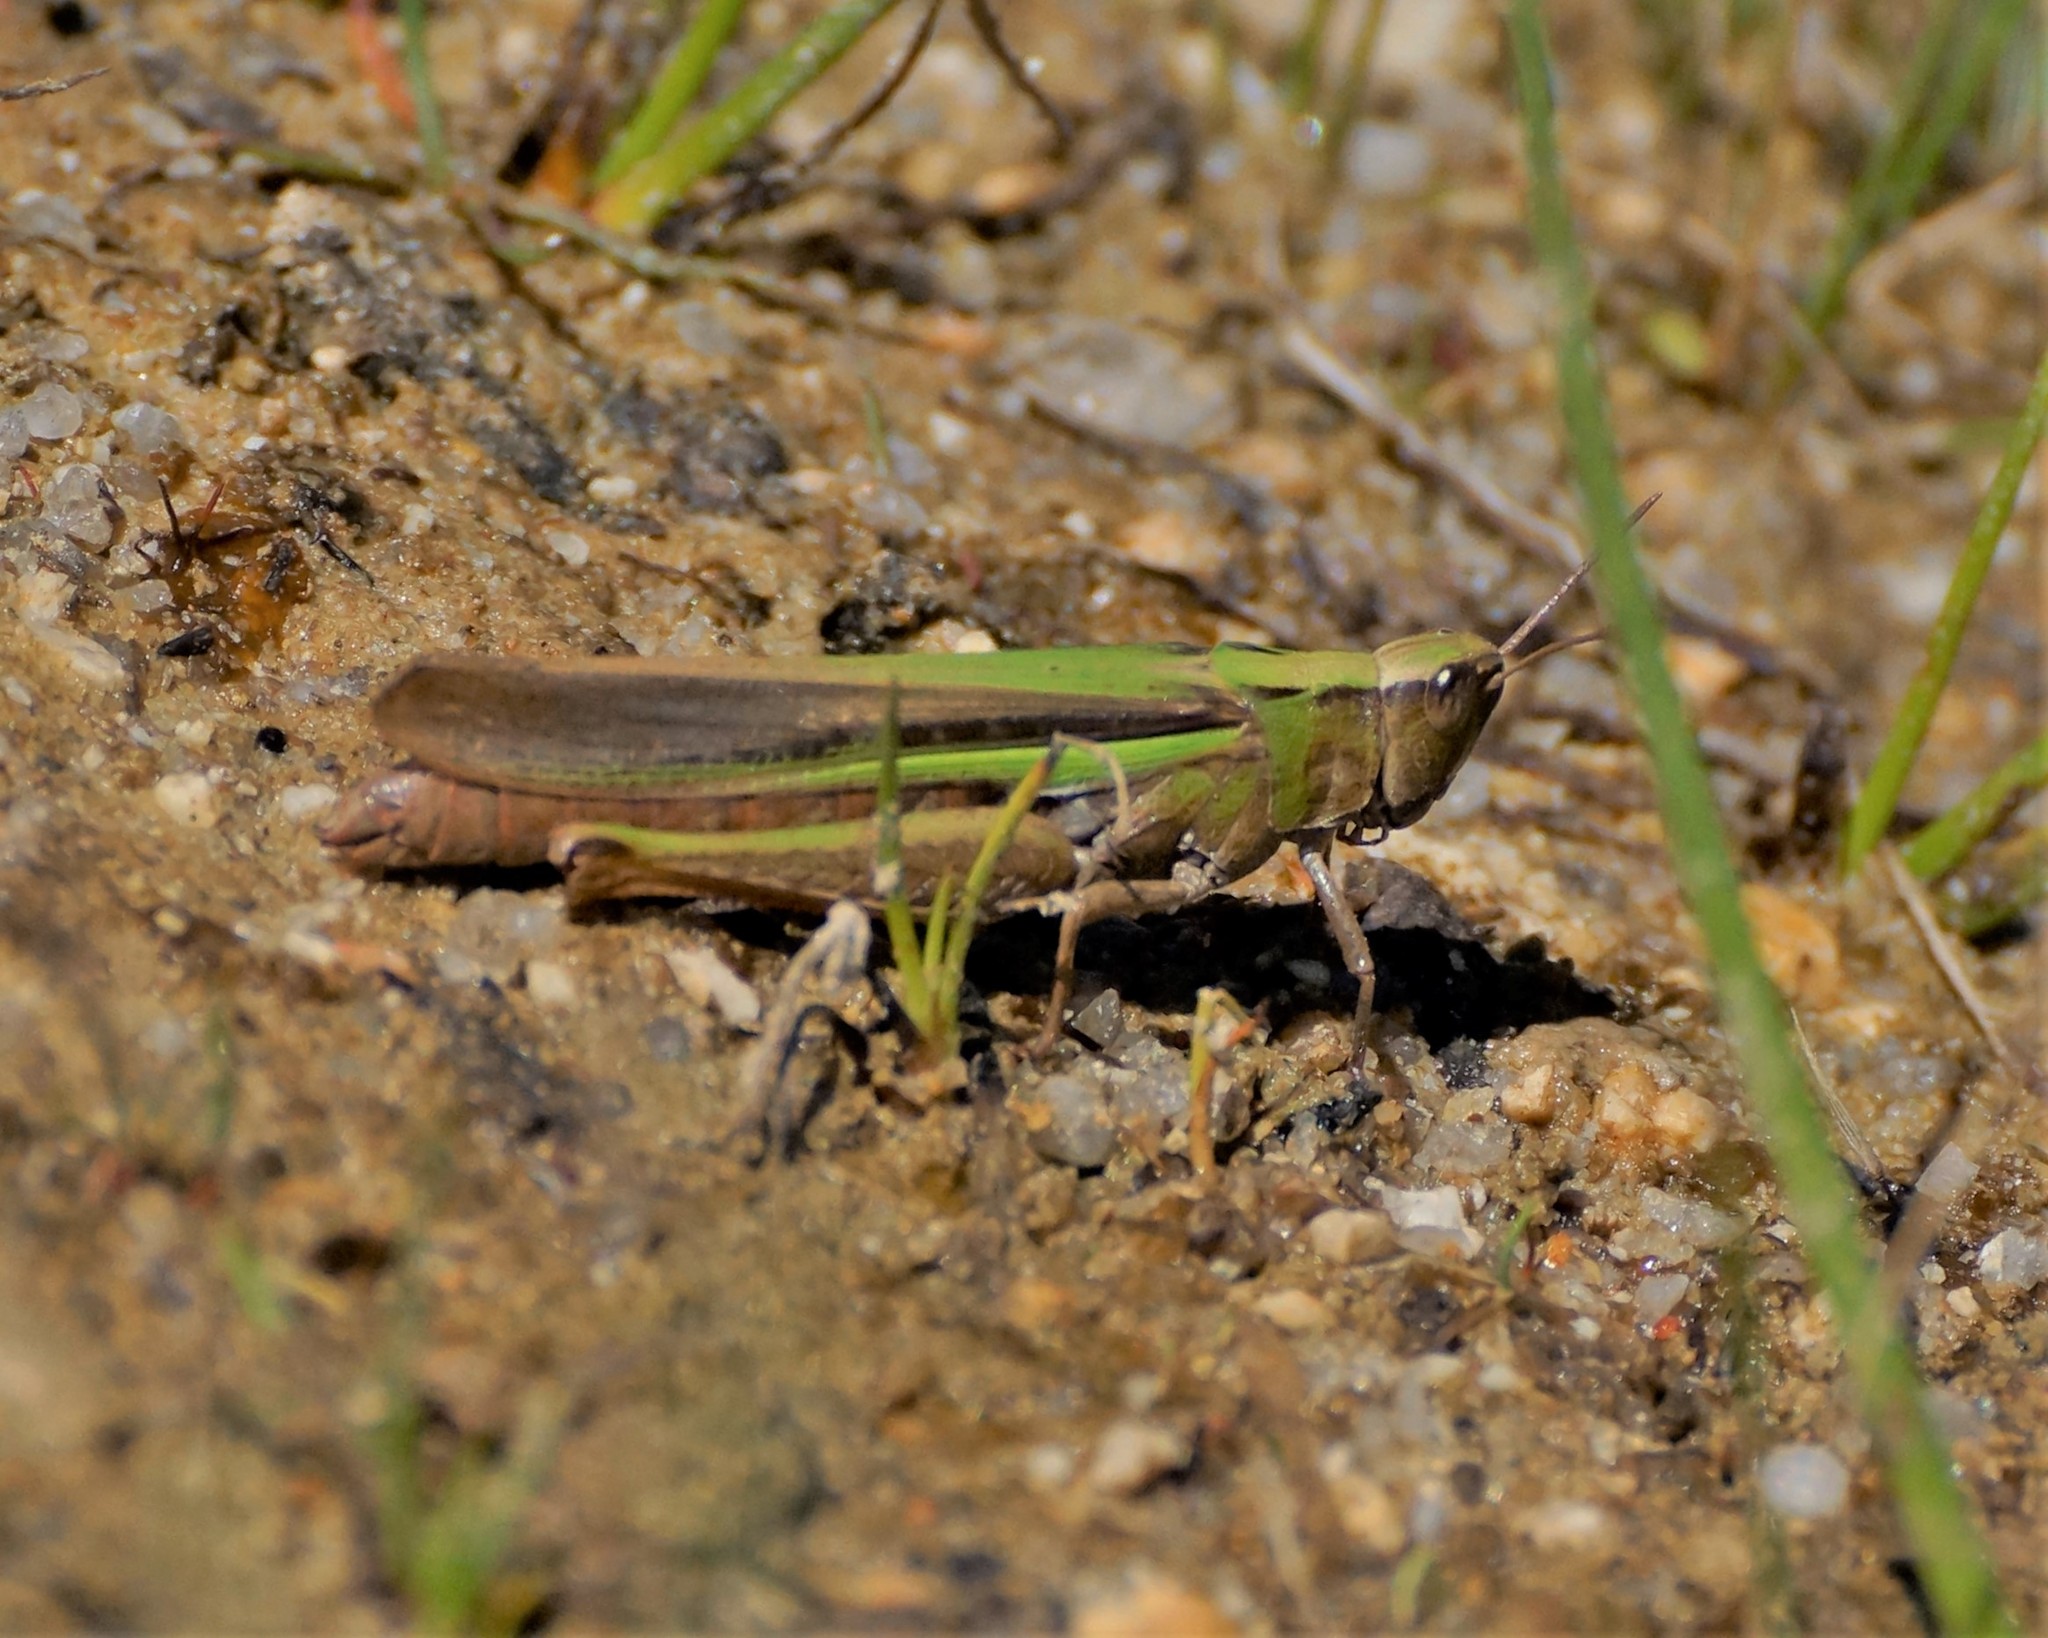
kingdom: Animalia
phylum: Arthropoda
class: Insecta
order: Orthoptera
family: Acrididae
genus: Schizobothrus
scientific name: Schizobothrus flavovittatus
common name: Disappearing grasshopper
